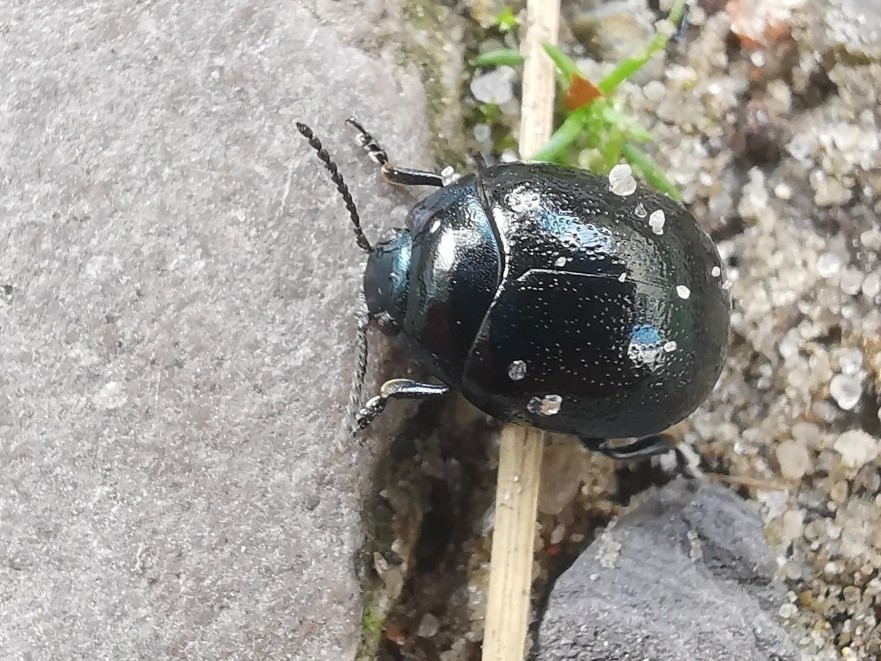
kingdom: Animalia
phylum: Arthropoda
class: Insecta
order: Coleoptera
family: Chrysomelidae
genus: Chrysolina
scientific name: Chrysolina haemoptera
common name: Plantain leaf beetle
